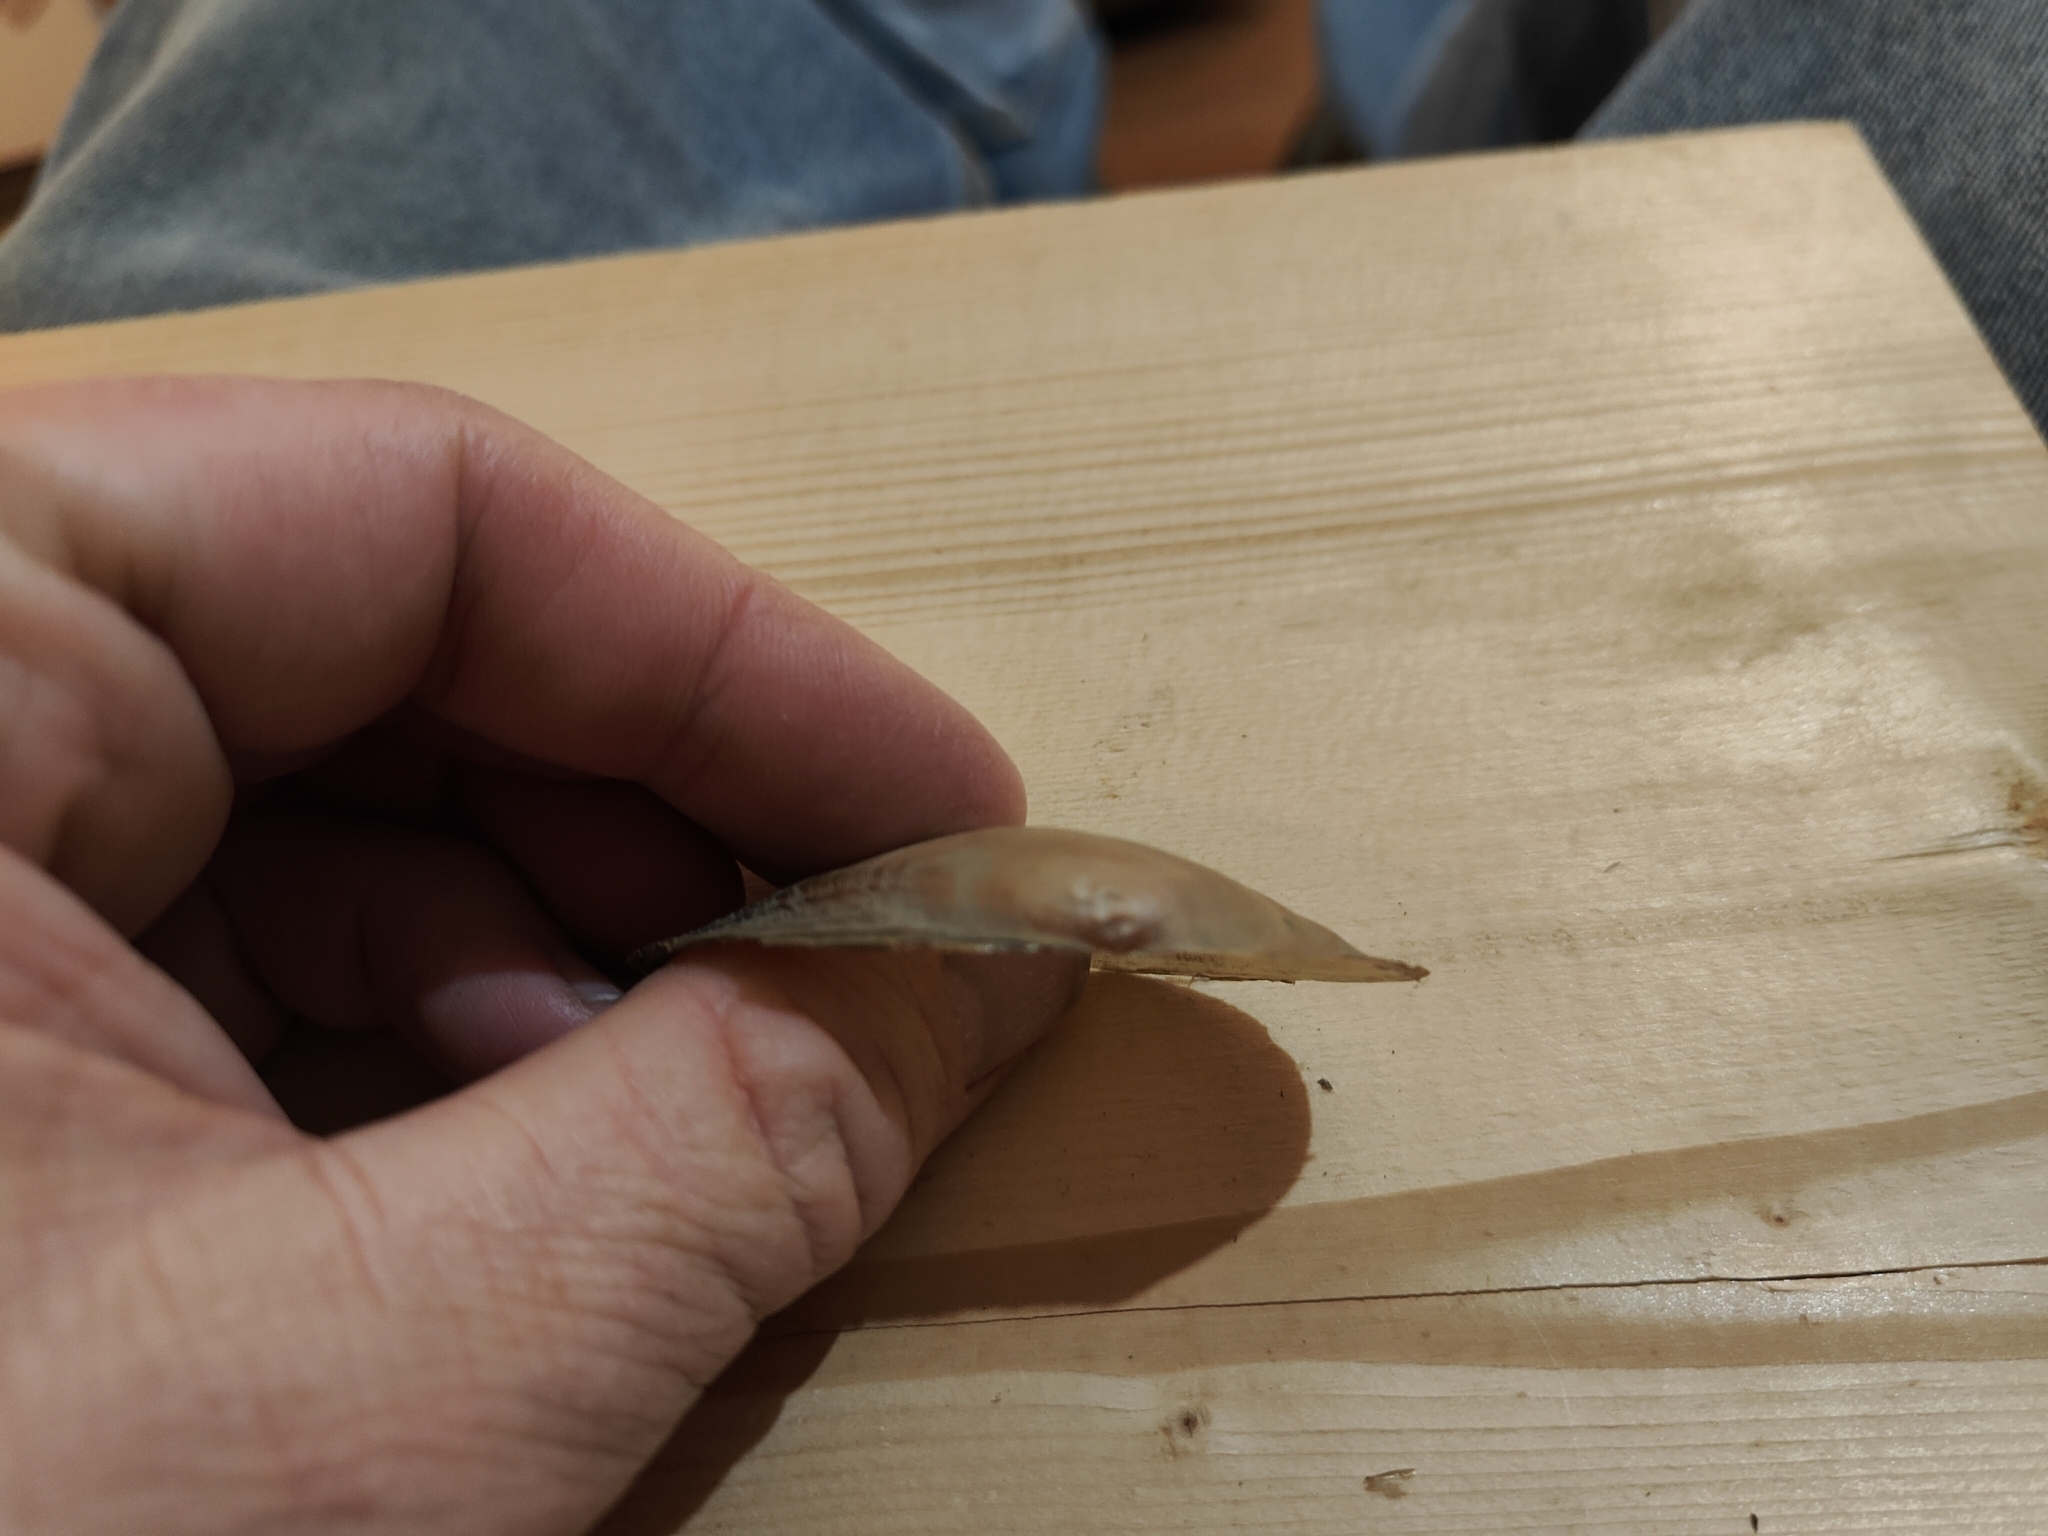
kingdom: Animalia
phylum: Mollusca
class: Bivalvia
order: Unionida
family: Unionidae
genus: Pyganodon
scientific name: Pyganodon grandis
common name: Giant floater
